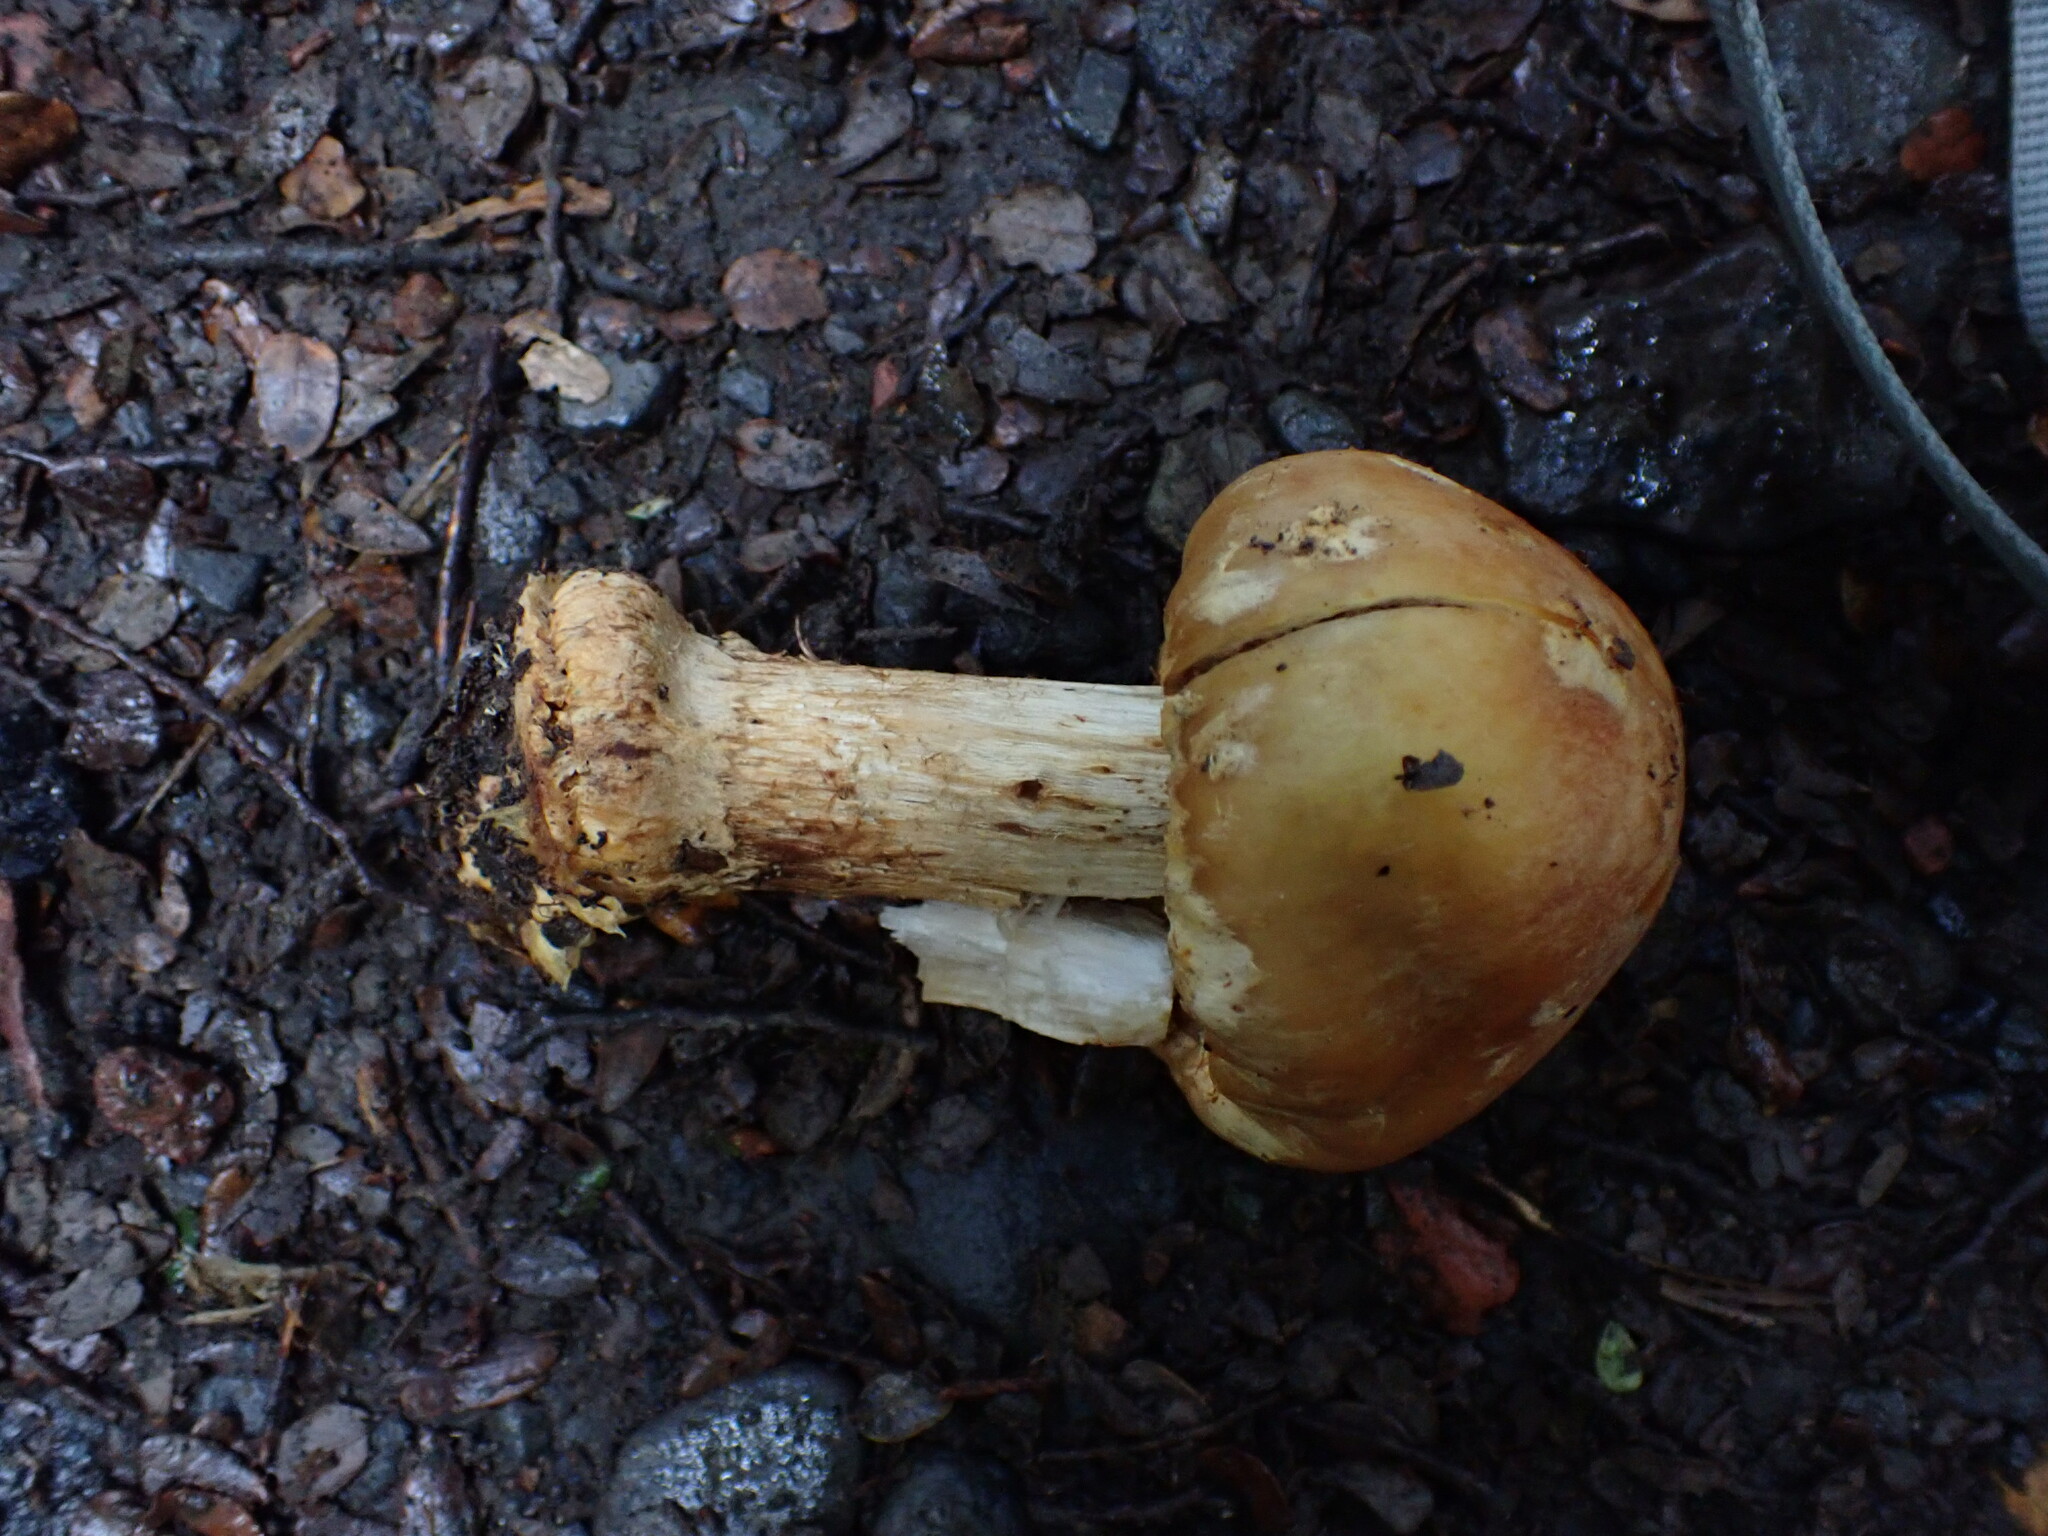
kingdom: Fungi
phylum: Basidiomycota
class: Agaricomycetes
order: Agaricales
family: Cortinariaceae
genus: Cortinarius
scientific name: Cortinarius epiphaeus
